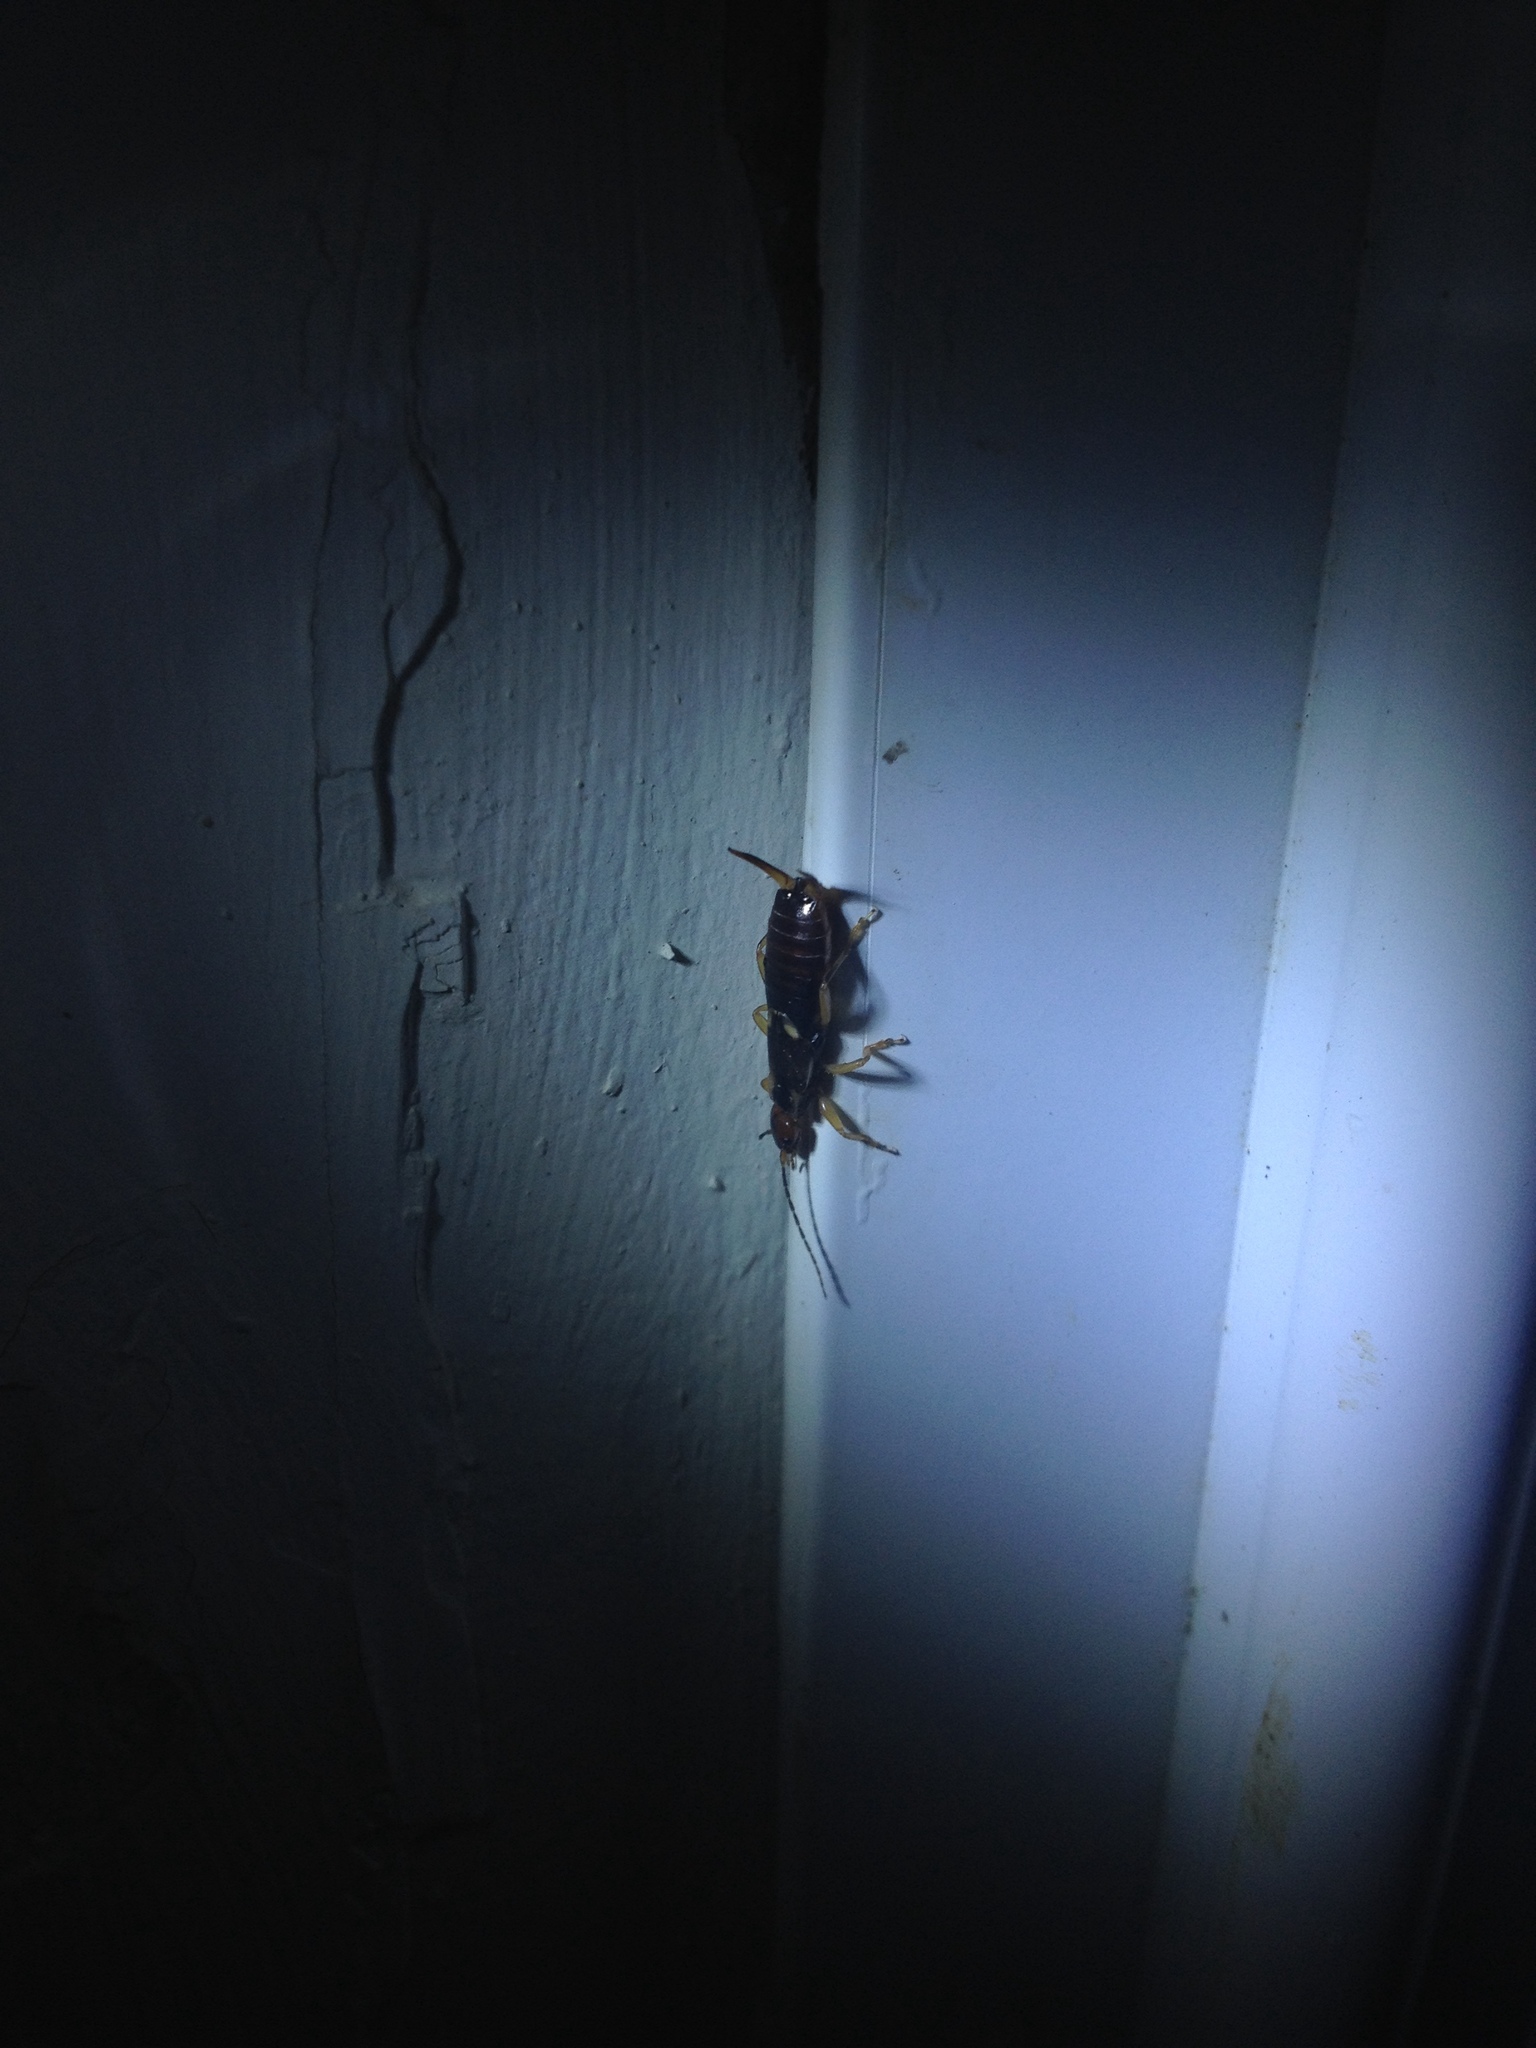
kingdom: Animalia
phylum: Arthropoda
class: Insecta
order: Dermaptera
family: Forficulidae
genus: Forficula
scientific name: Forficula
